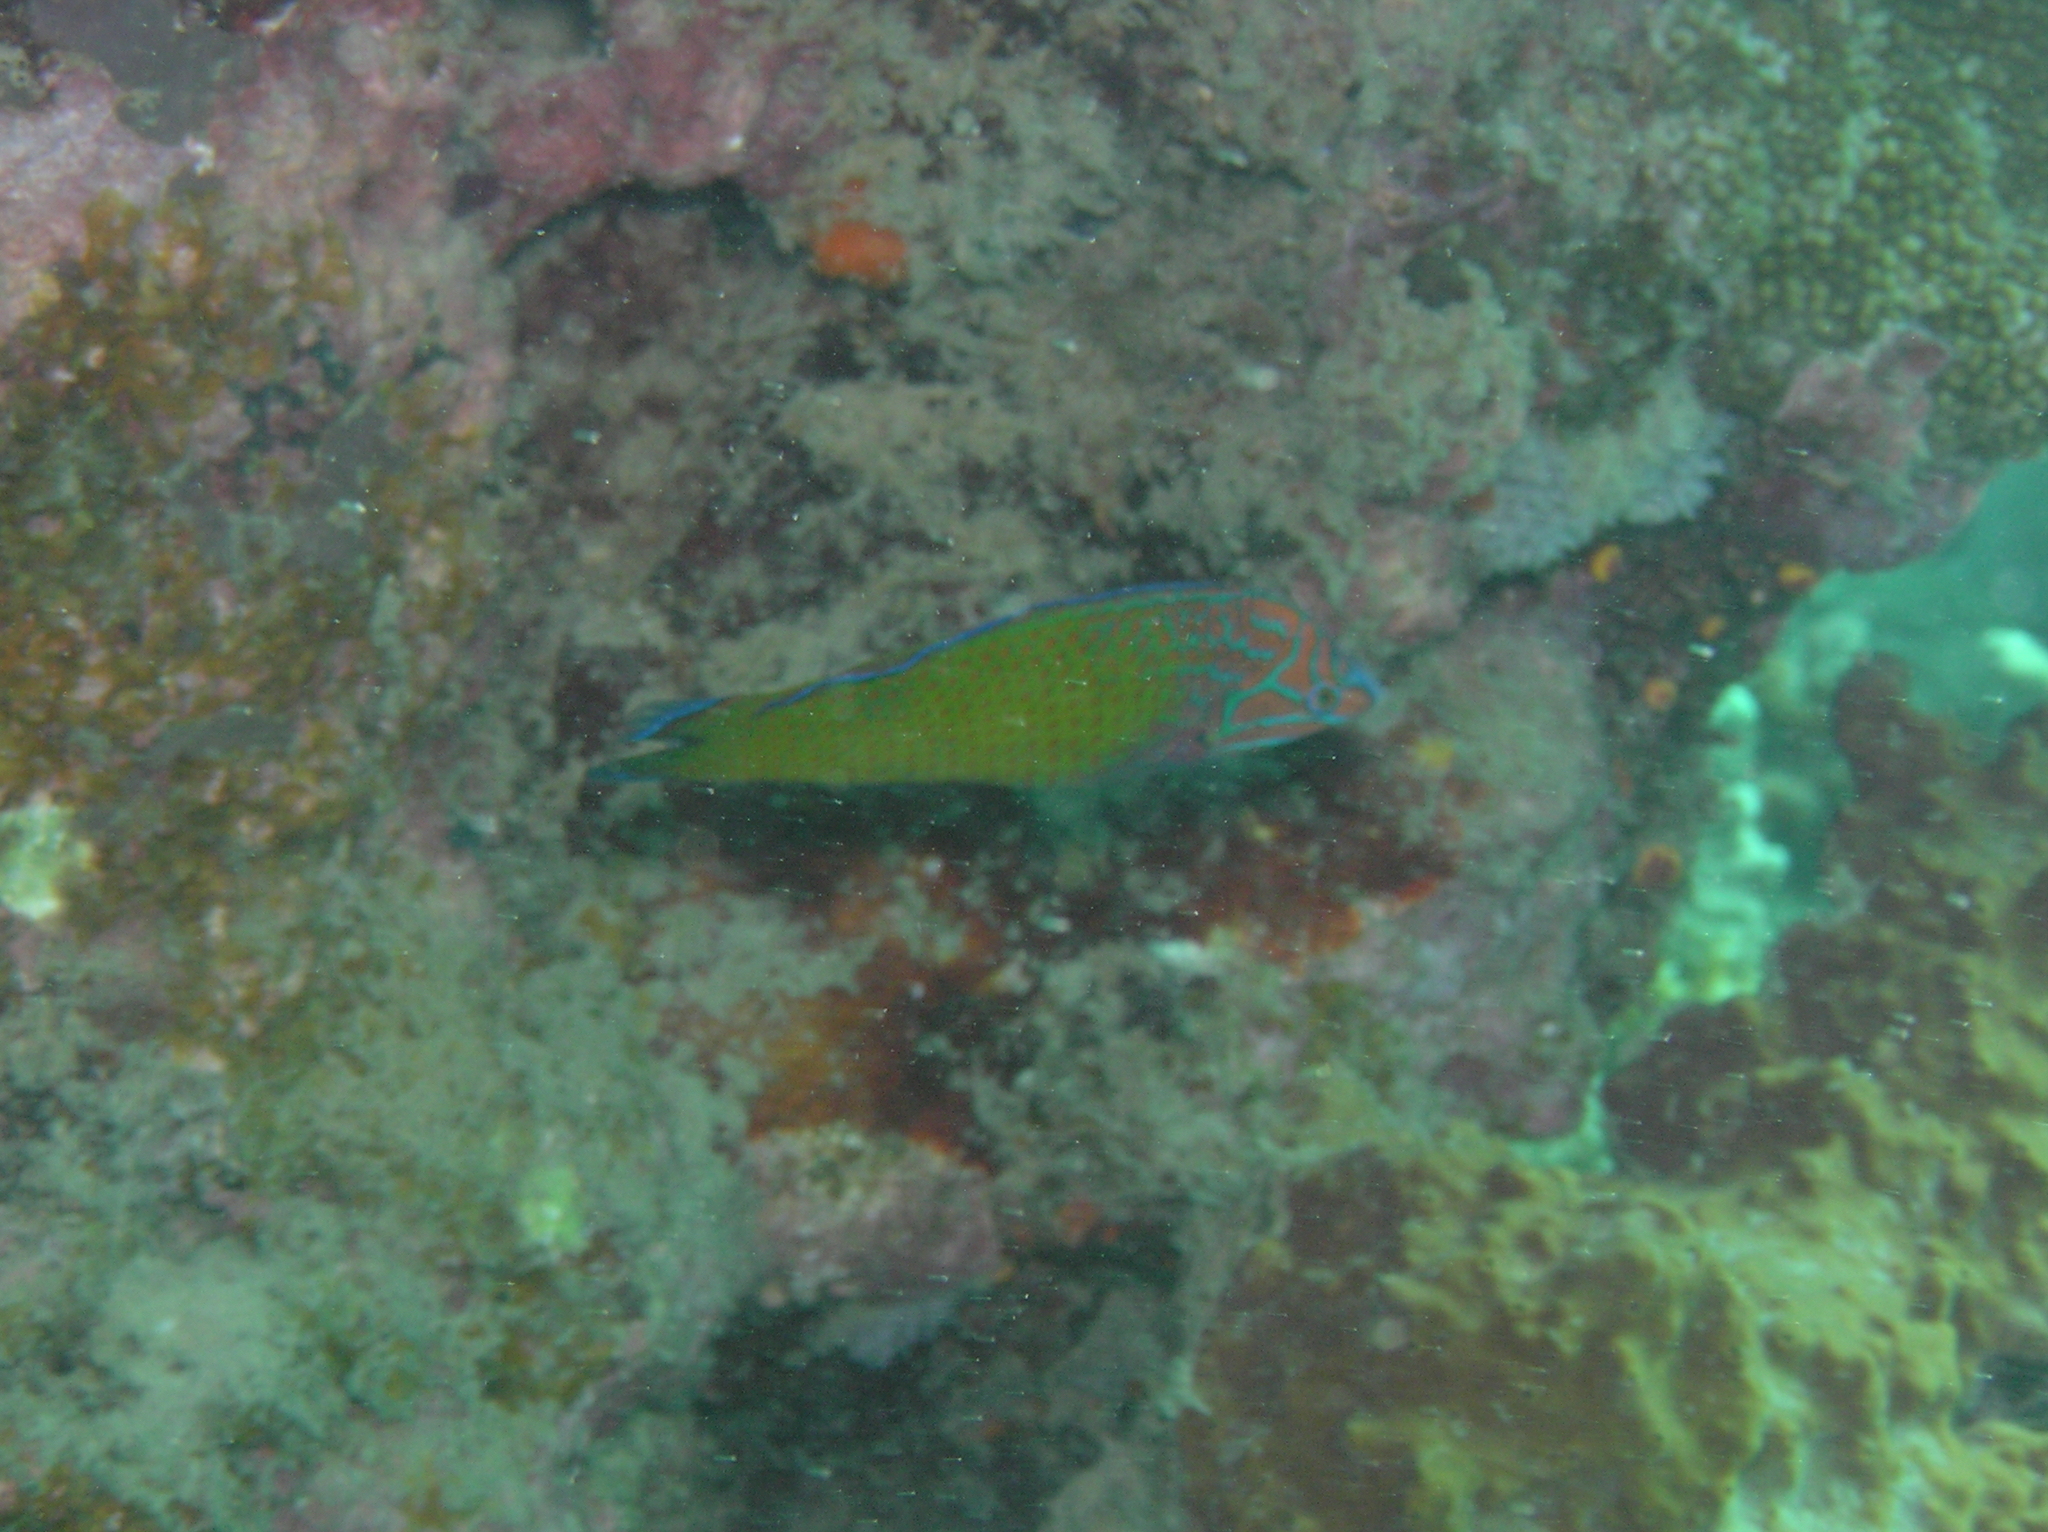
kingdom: Animalia
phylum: Chordata
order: Perciformes
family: Labridae
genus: Halichoeres
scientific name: Halichoeres leucurus
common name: Grey-head wrasse
